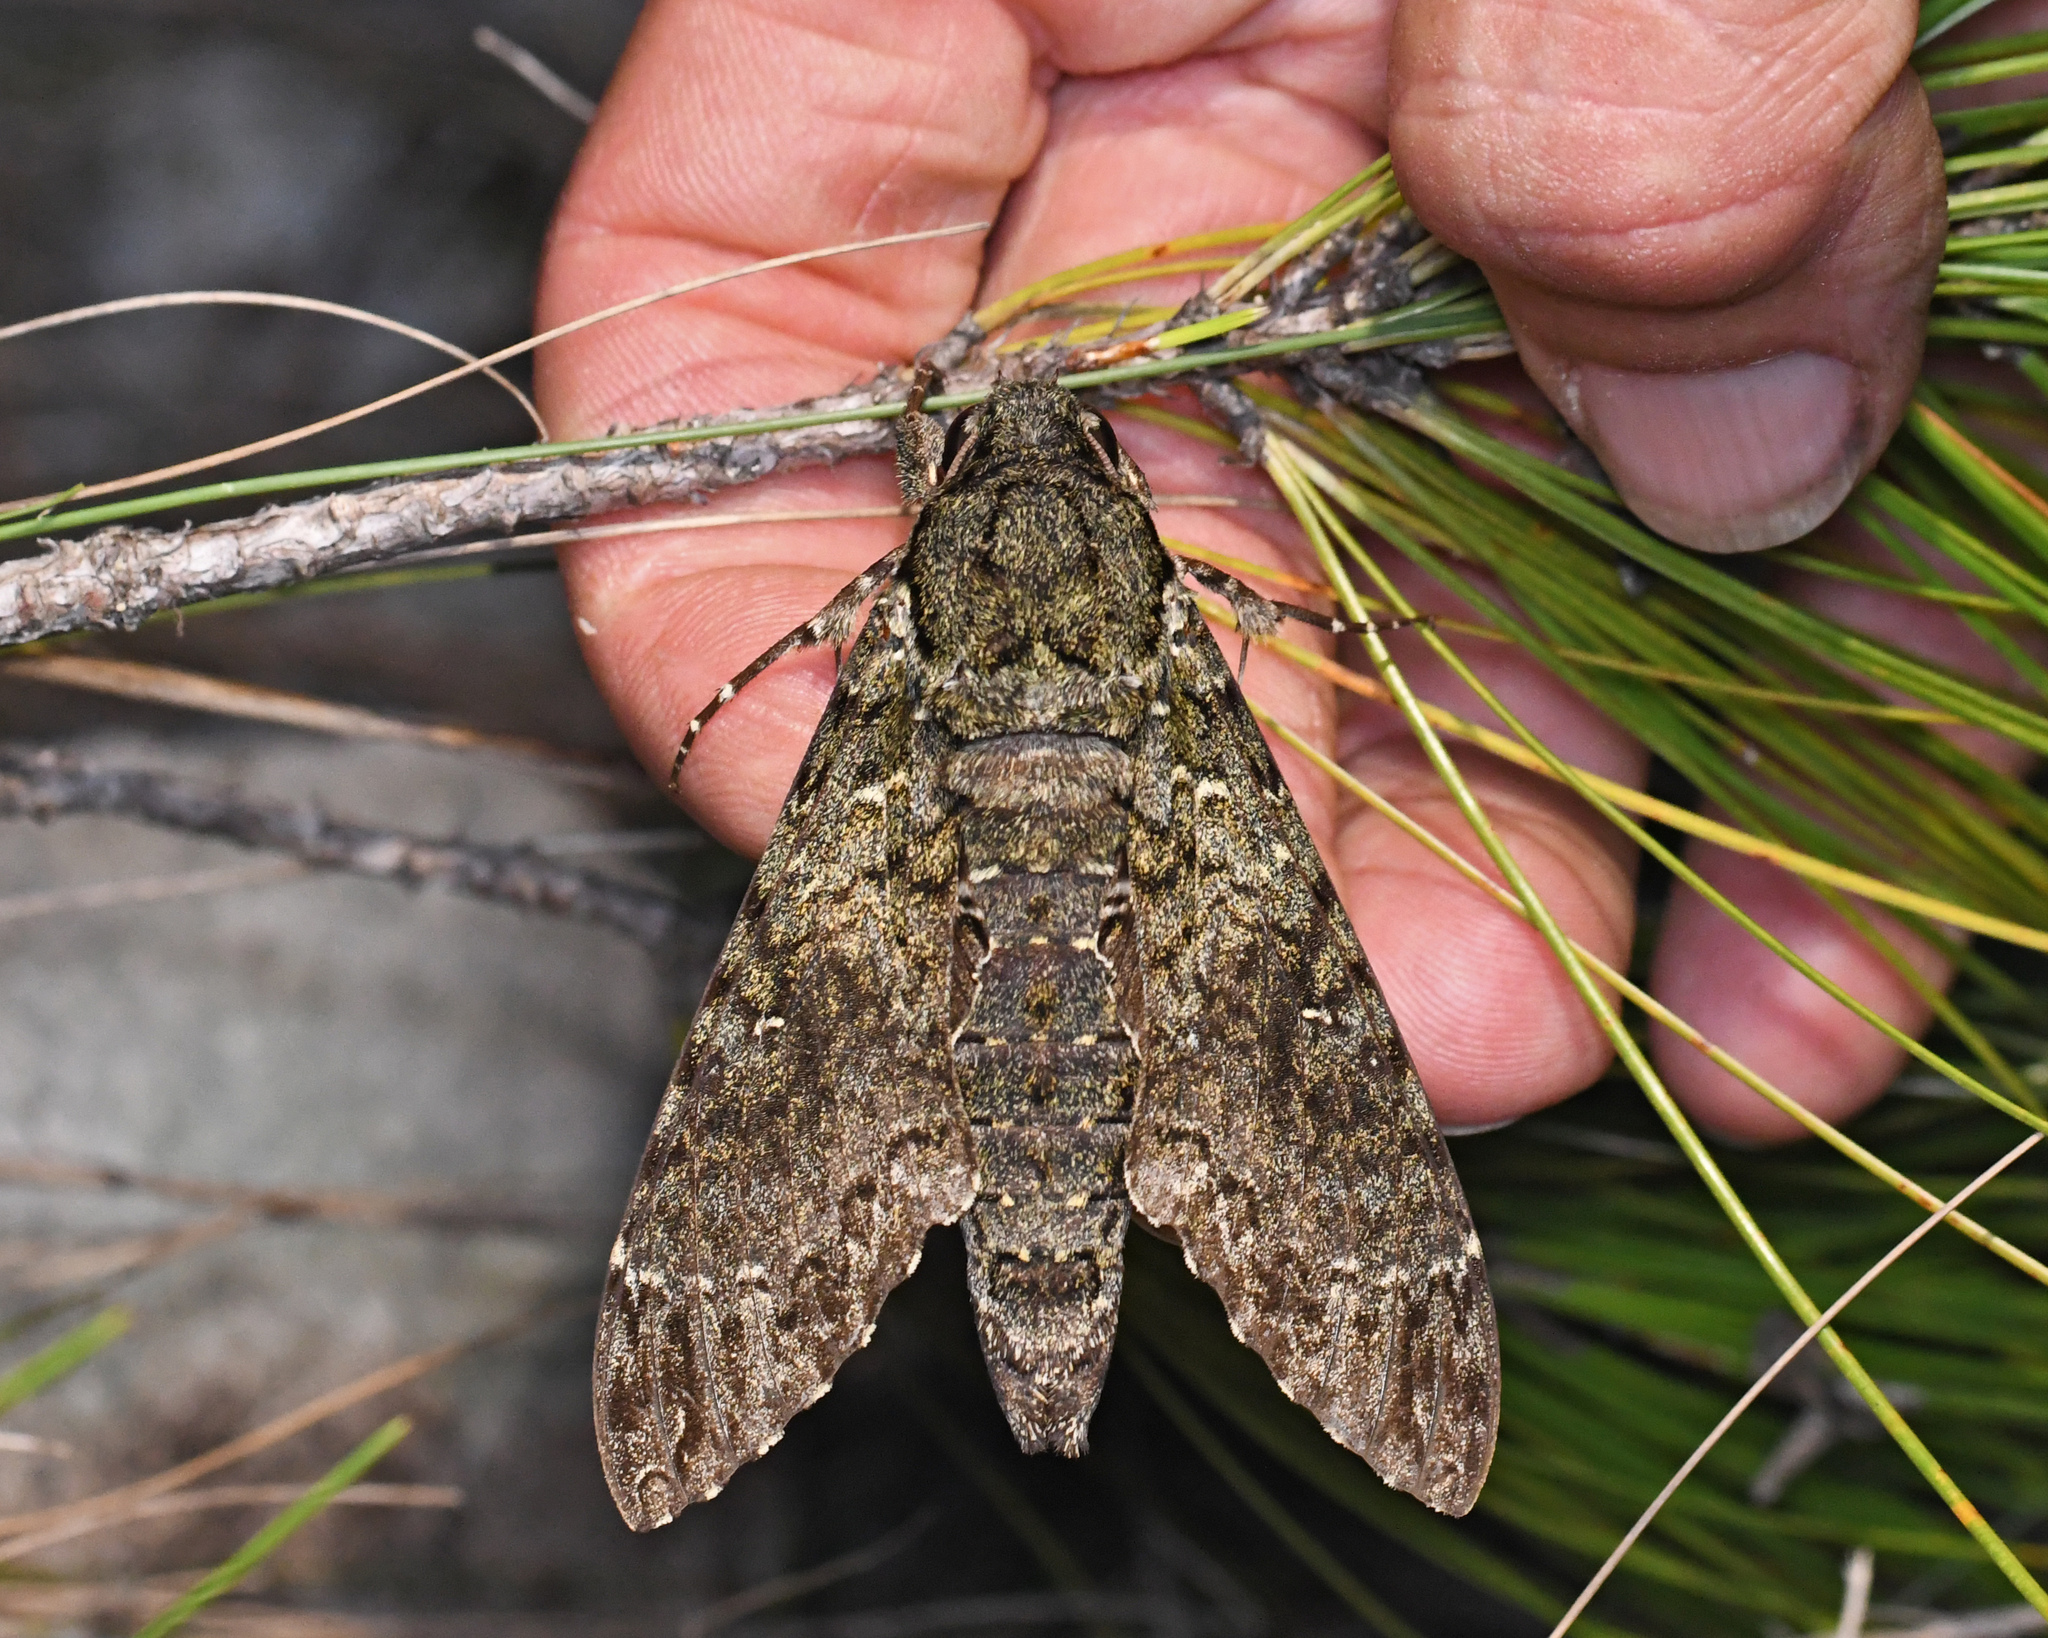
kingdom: Animalia
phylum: Arthropoda
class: Insecta
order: Lepidoptera
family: Sphingidae
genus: Cocytius
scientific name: Cocytius duponchel
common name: Duponchel's sphinx
